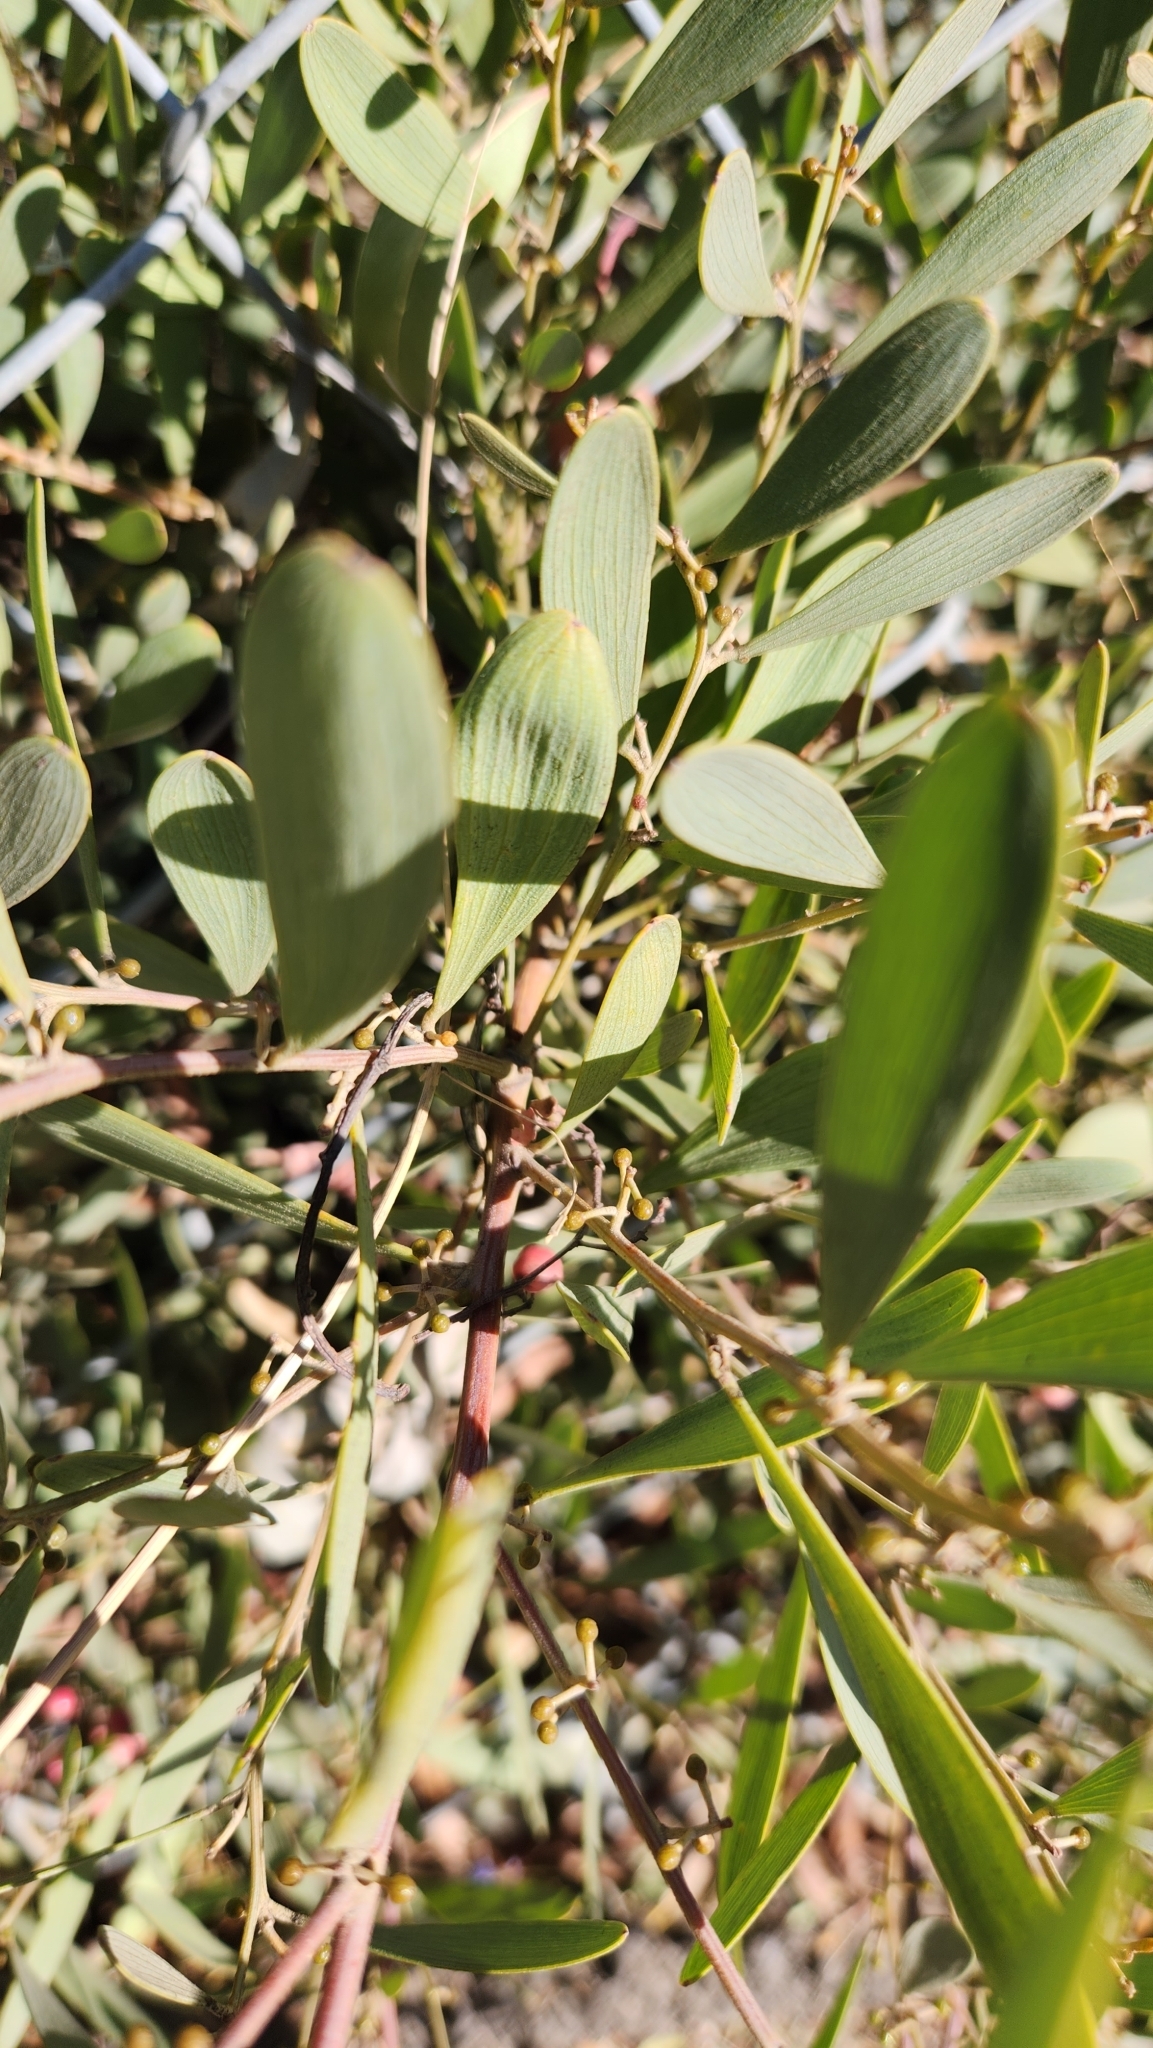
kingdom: Plantae
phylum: Tracheophyta
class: Magnoliopsida
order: Fabales
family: Fabaceae
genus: Acacia
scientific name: Acacia redolens
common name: Bank catclaw
